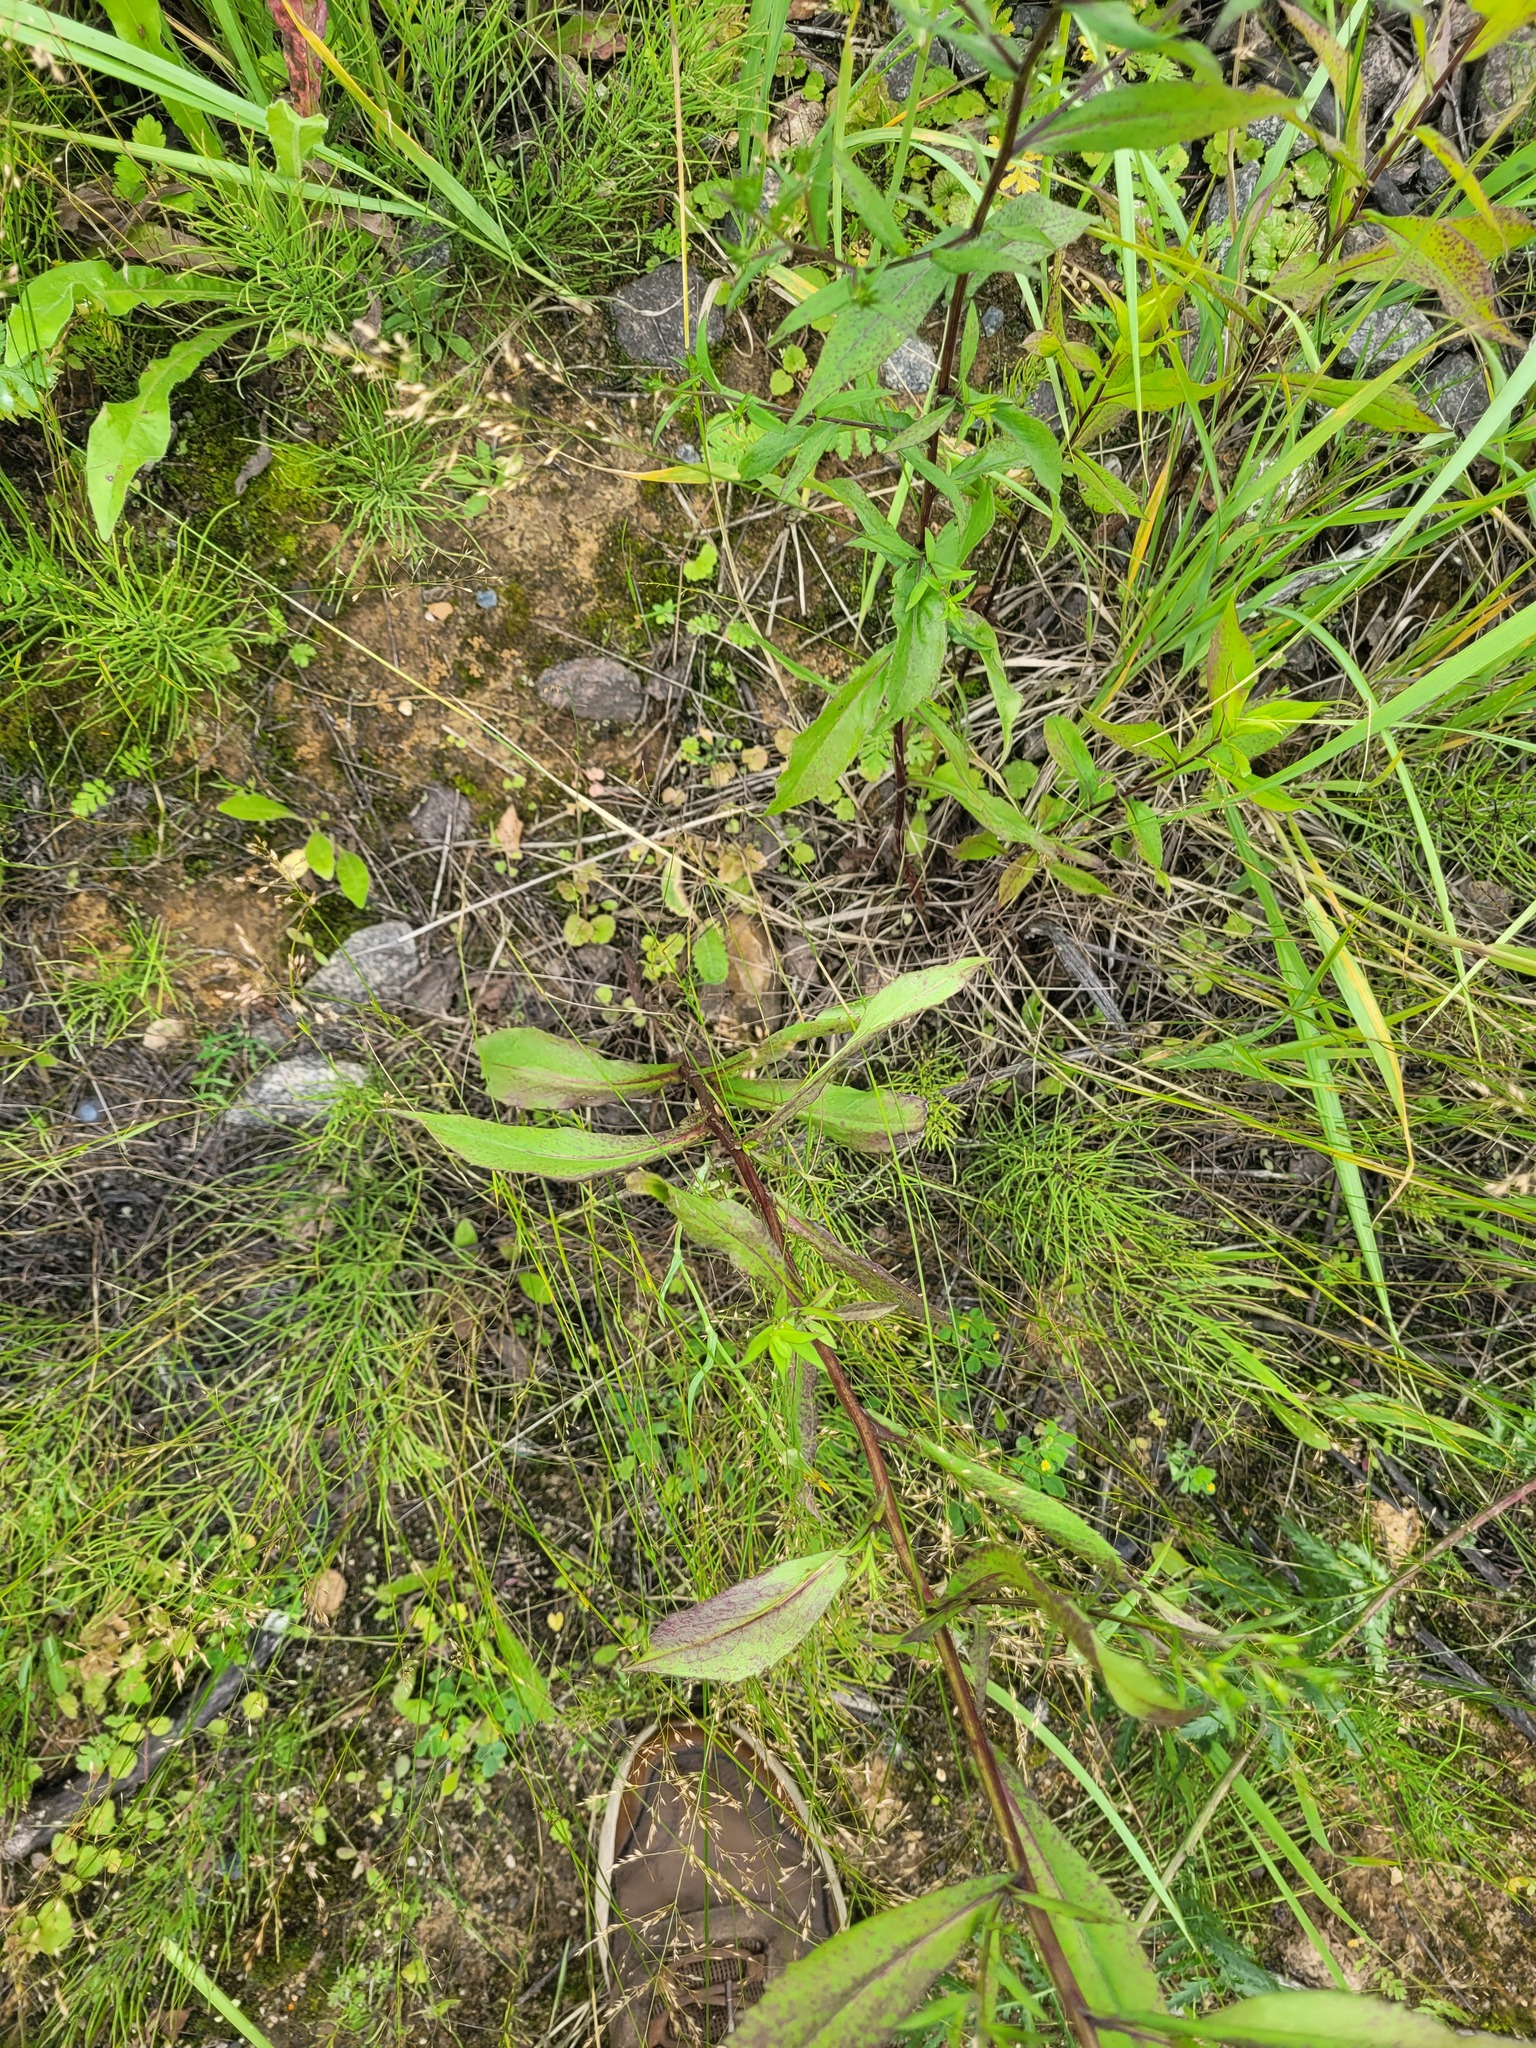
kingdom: Plantae
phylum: Tracheophyta
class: Magnoliopsida
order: Asterales
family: Asteraceae
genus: Symphyotrichum
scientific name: Symphyotrichum novi-belgii
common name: Michaelmas daisy
